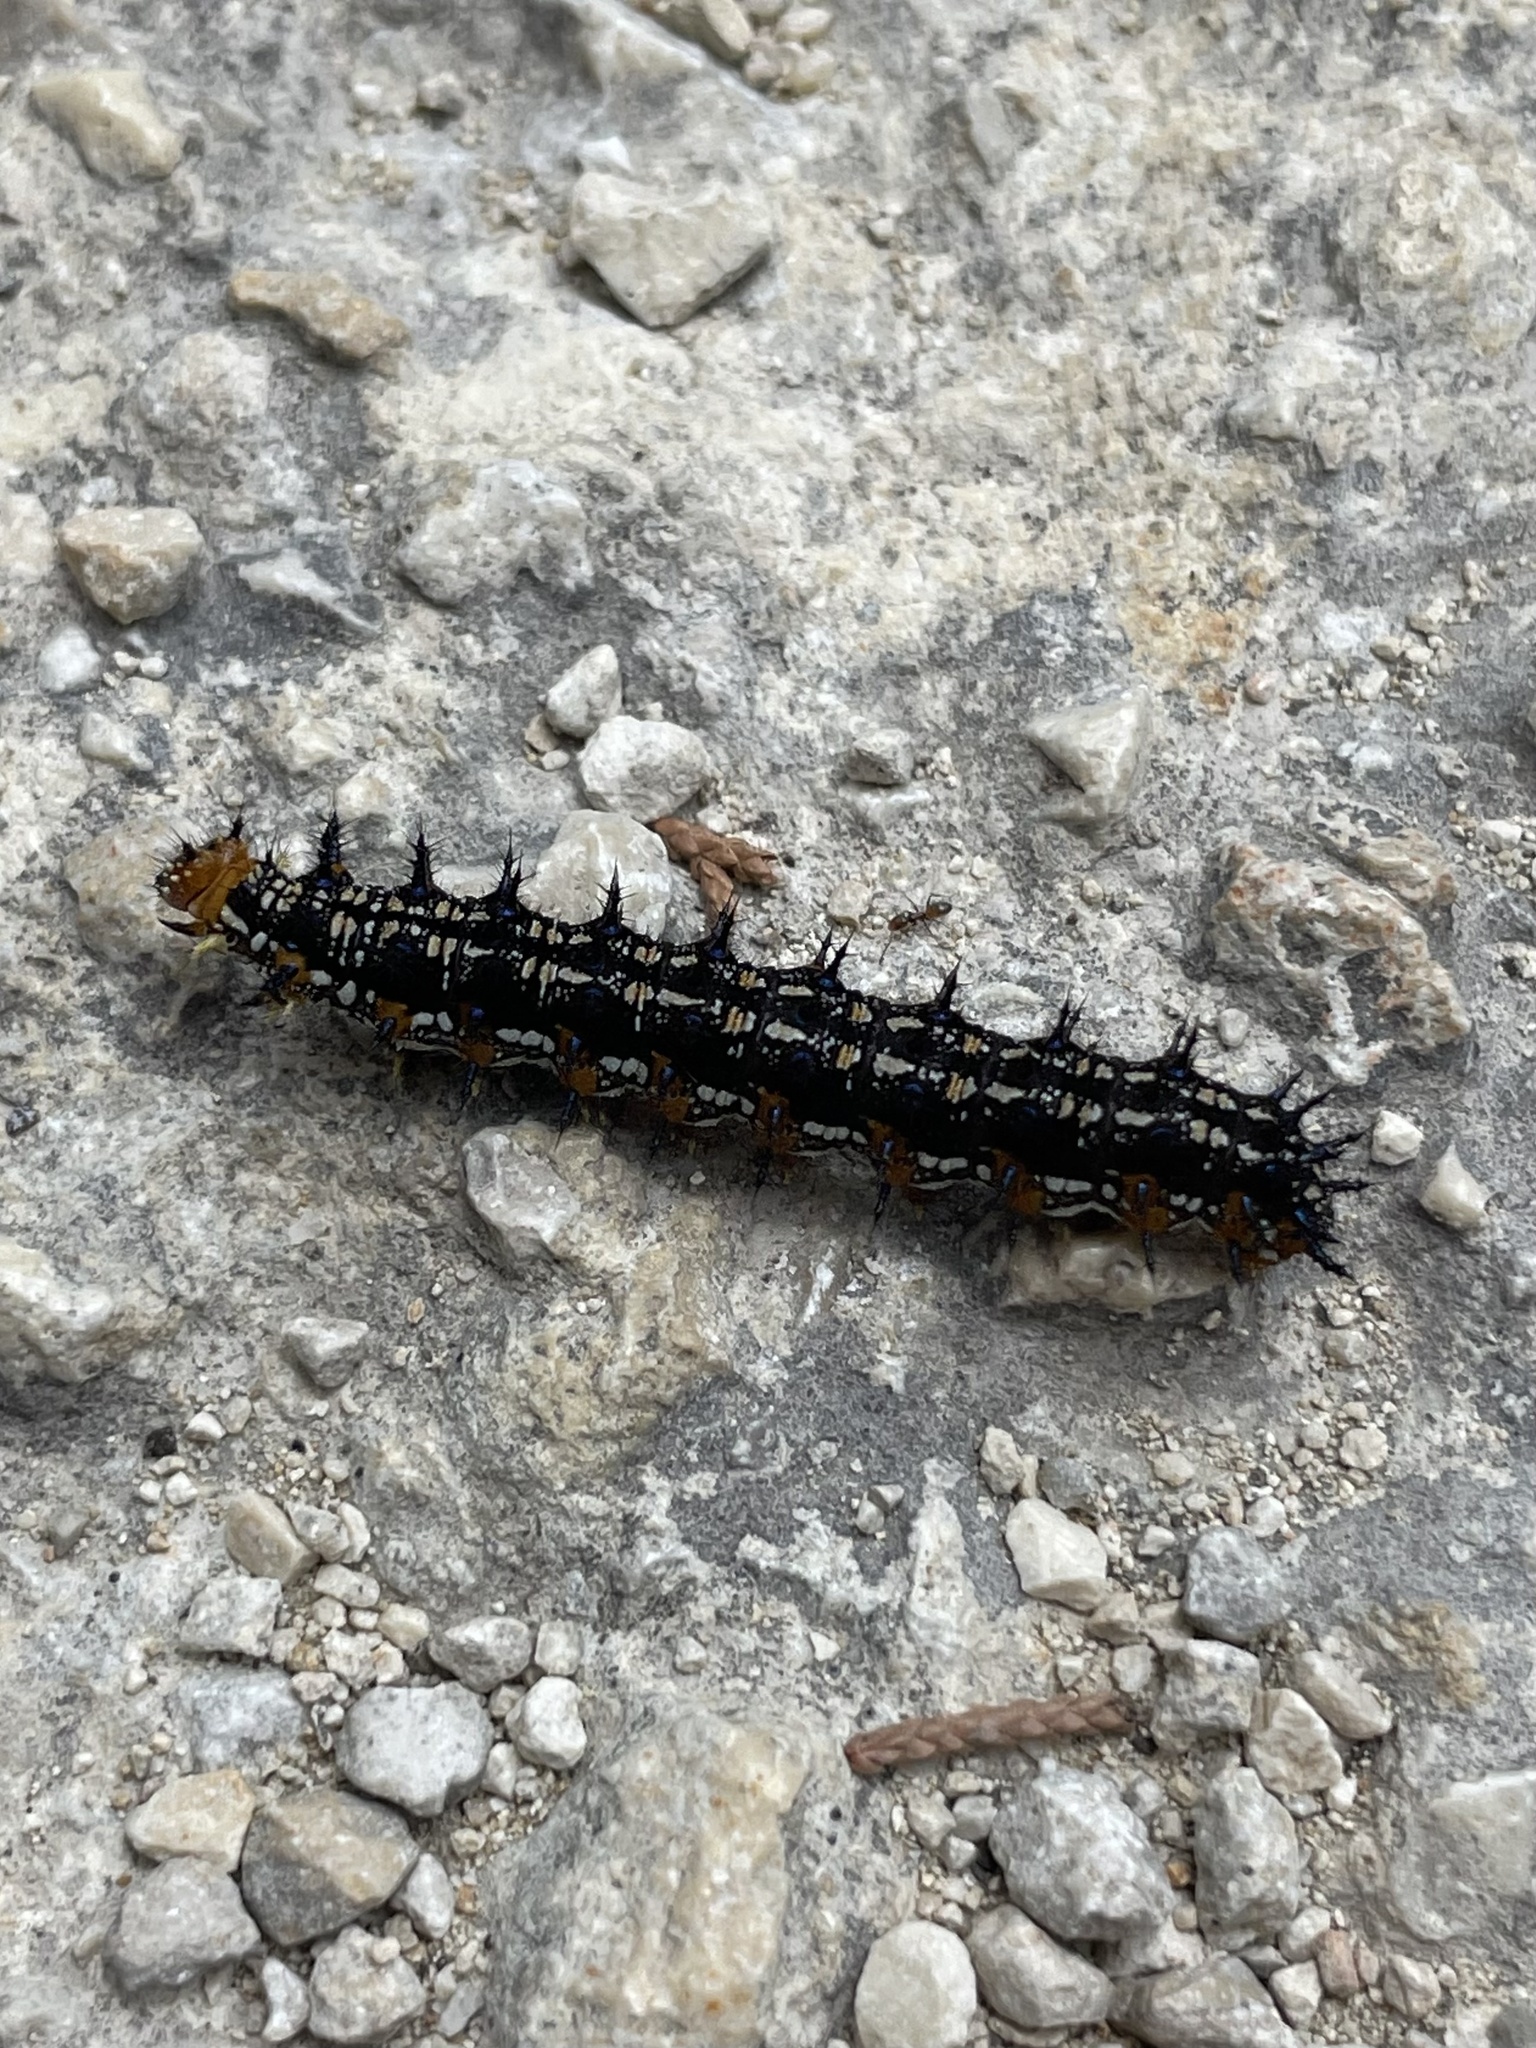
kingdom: Animalia
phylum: Arthropoda
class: Insecta
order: Lepidoptera
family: Nymphalidae
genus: Junonia
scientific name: Junonia coenia
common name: Common buckeye
